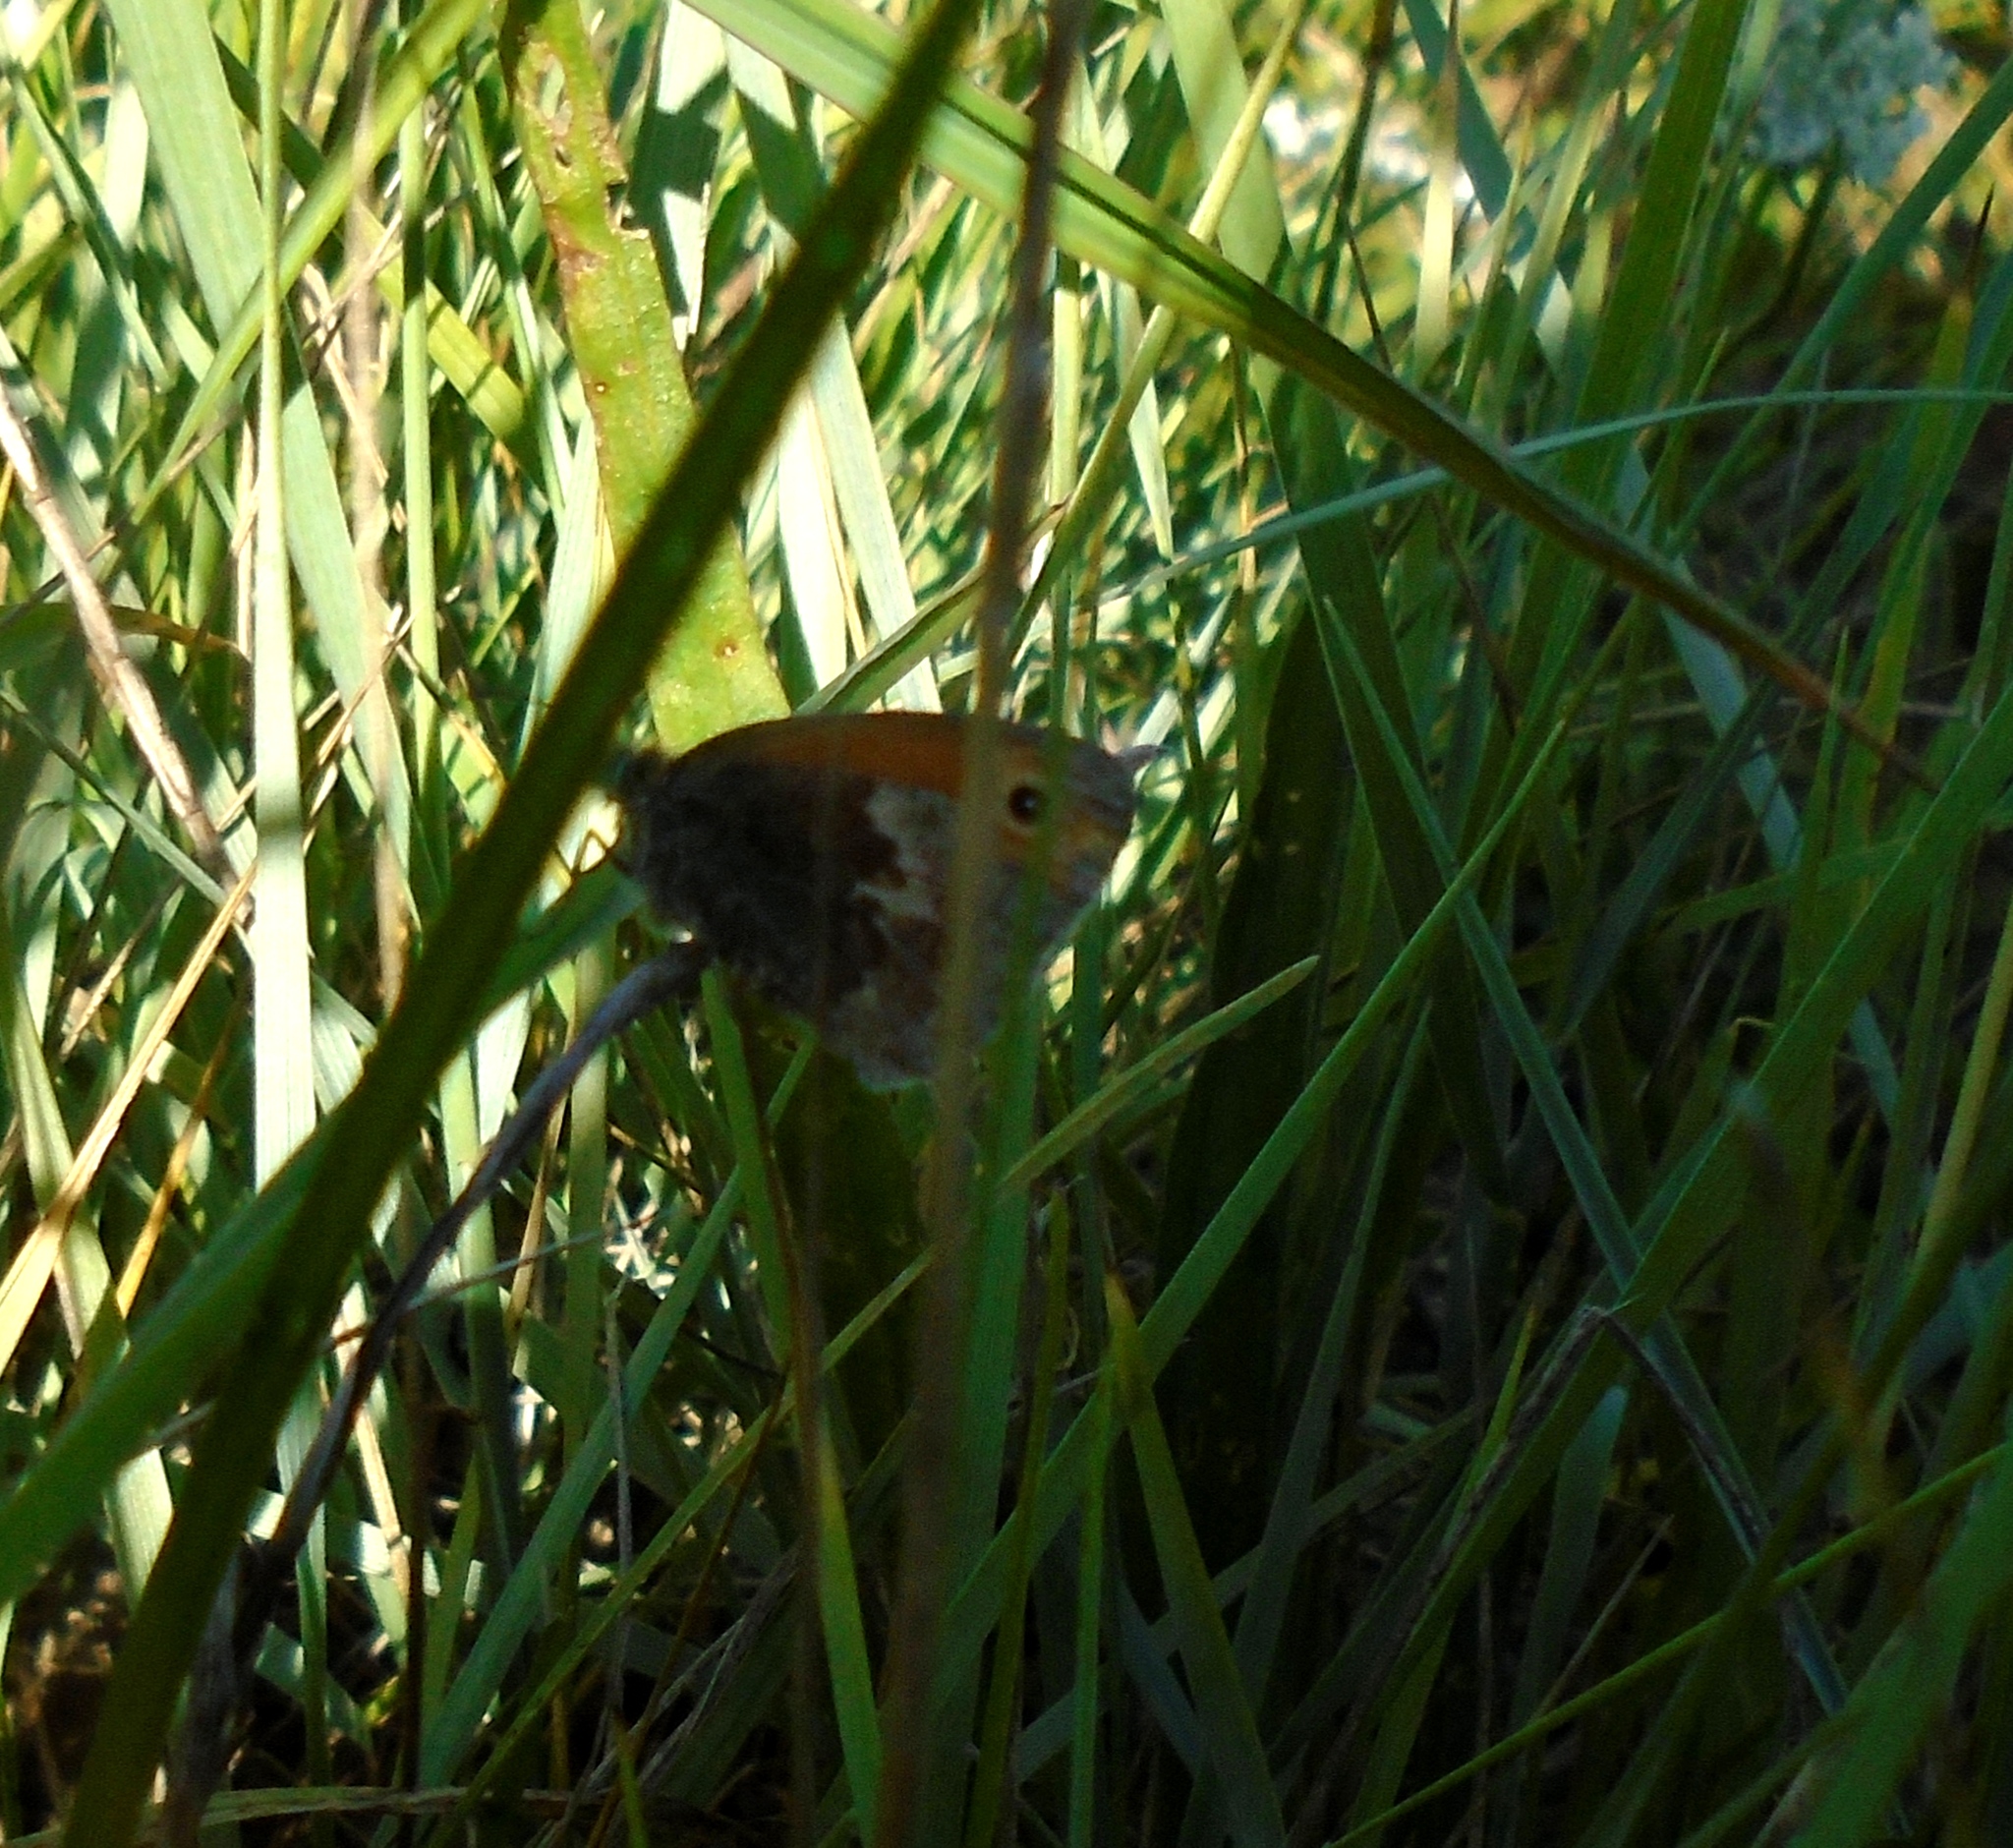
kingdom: Animalia
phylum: Arthropoda
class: Insecta
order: Lepidoptera
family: Nymphalidae
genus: Coenonympha
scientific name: Coenonympha pamphilus
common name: Small heath
